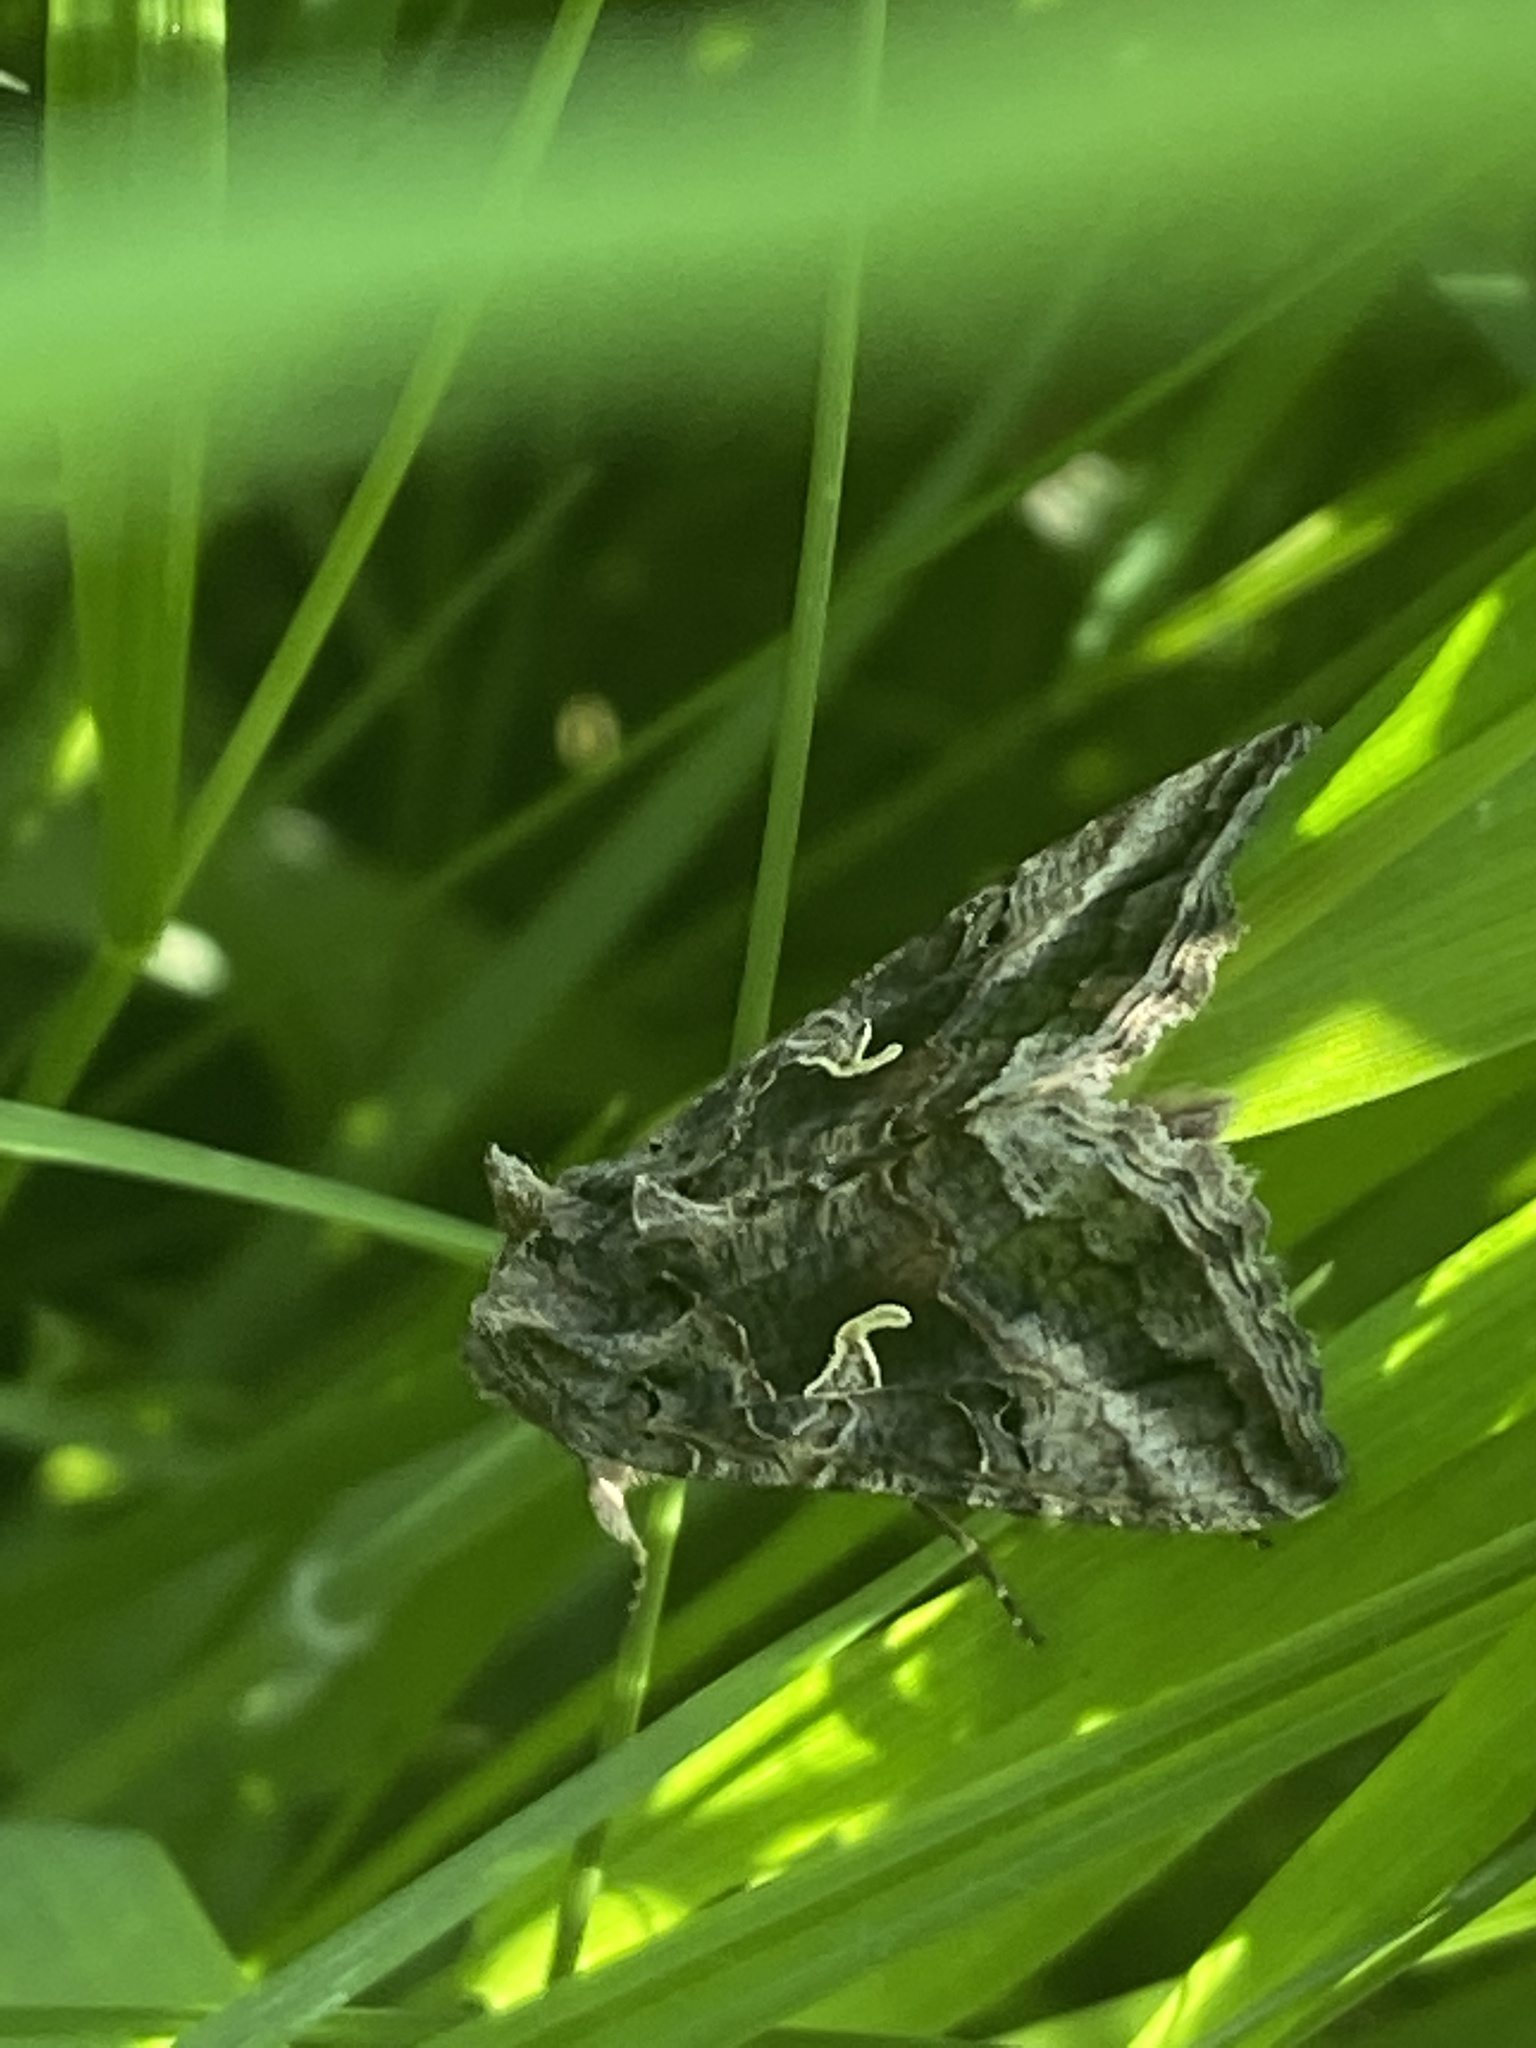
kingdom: Animalia
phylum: Arthropoda
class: Insecta
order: Lepidoptera
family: Noctuidae
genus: Autographa
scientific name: Autographa gamma
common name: Silver y
